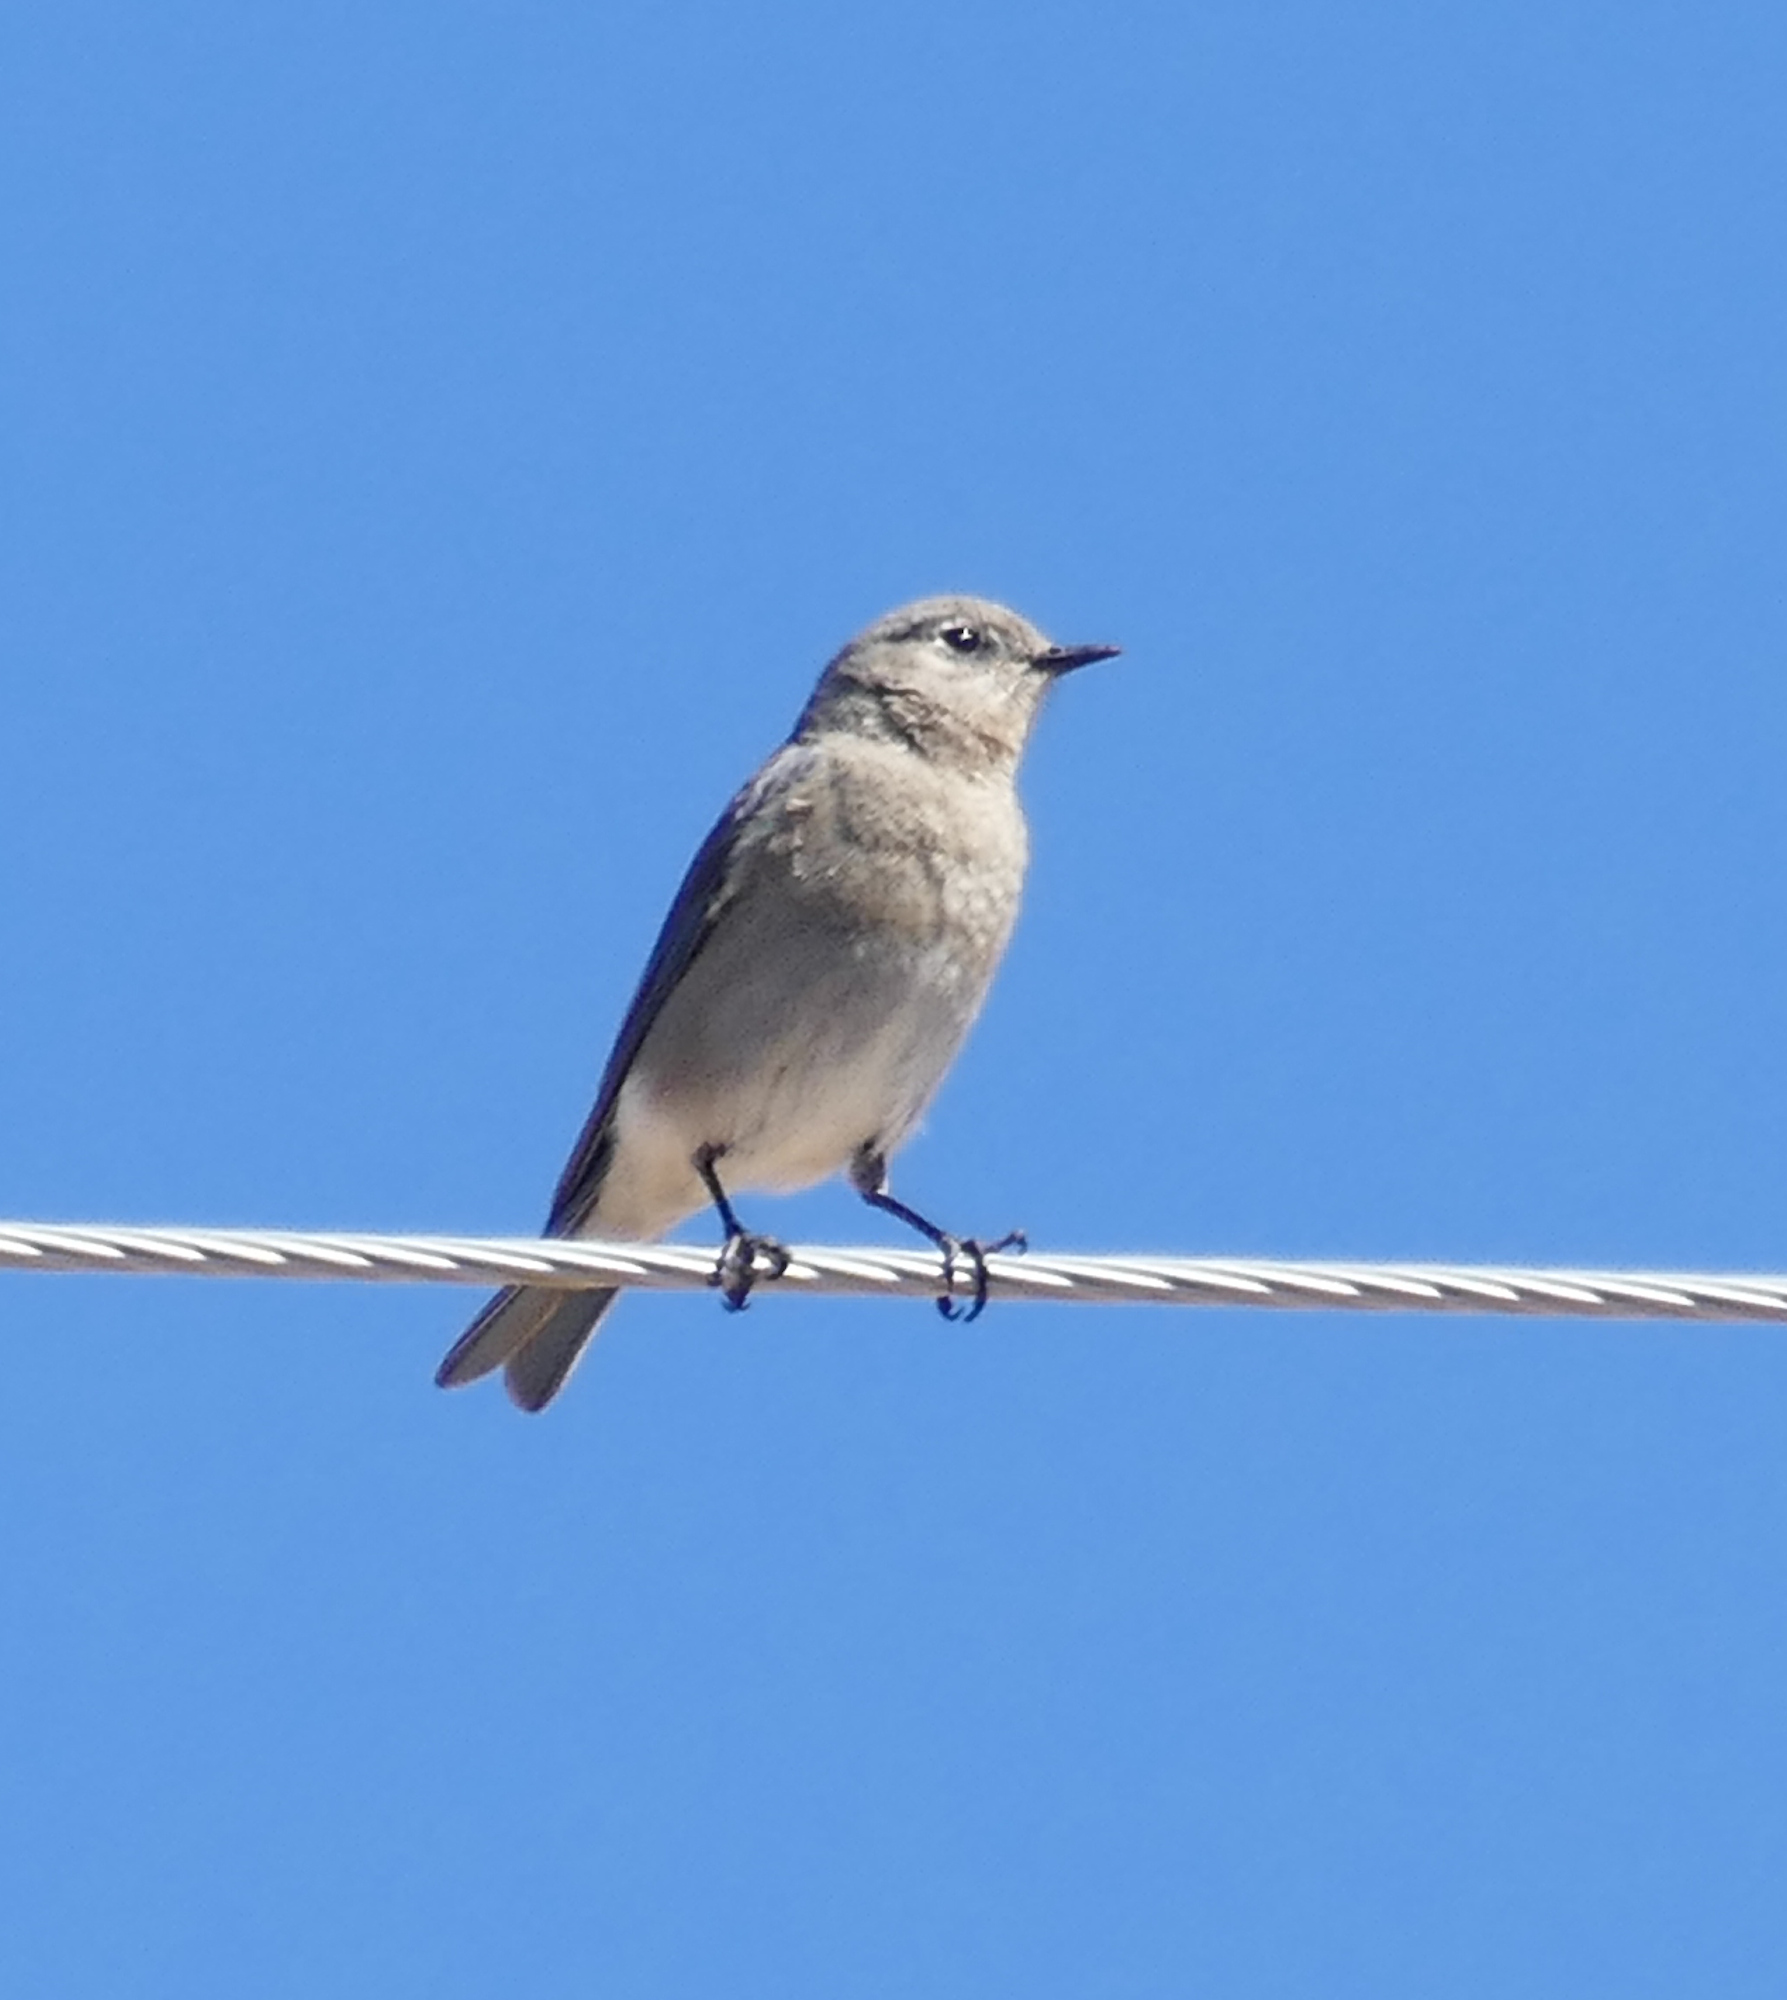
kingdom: Animalia
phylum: Chordata
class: Aves
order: Passeriformes
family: Turdidae
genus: Sialia
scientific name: Sialia currucoides
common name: Mountain bluebird
